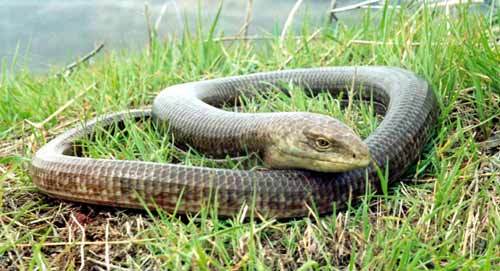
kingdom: Animalia
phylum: Chordata
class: Squamata
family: Anguidae
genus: Pseudopus
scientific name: Pseudopus apodus
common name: European glass lizard
